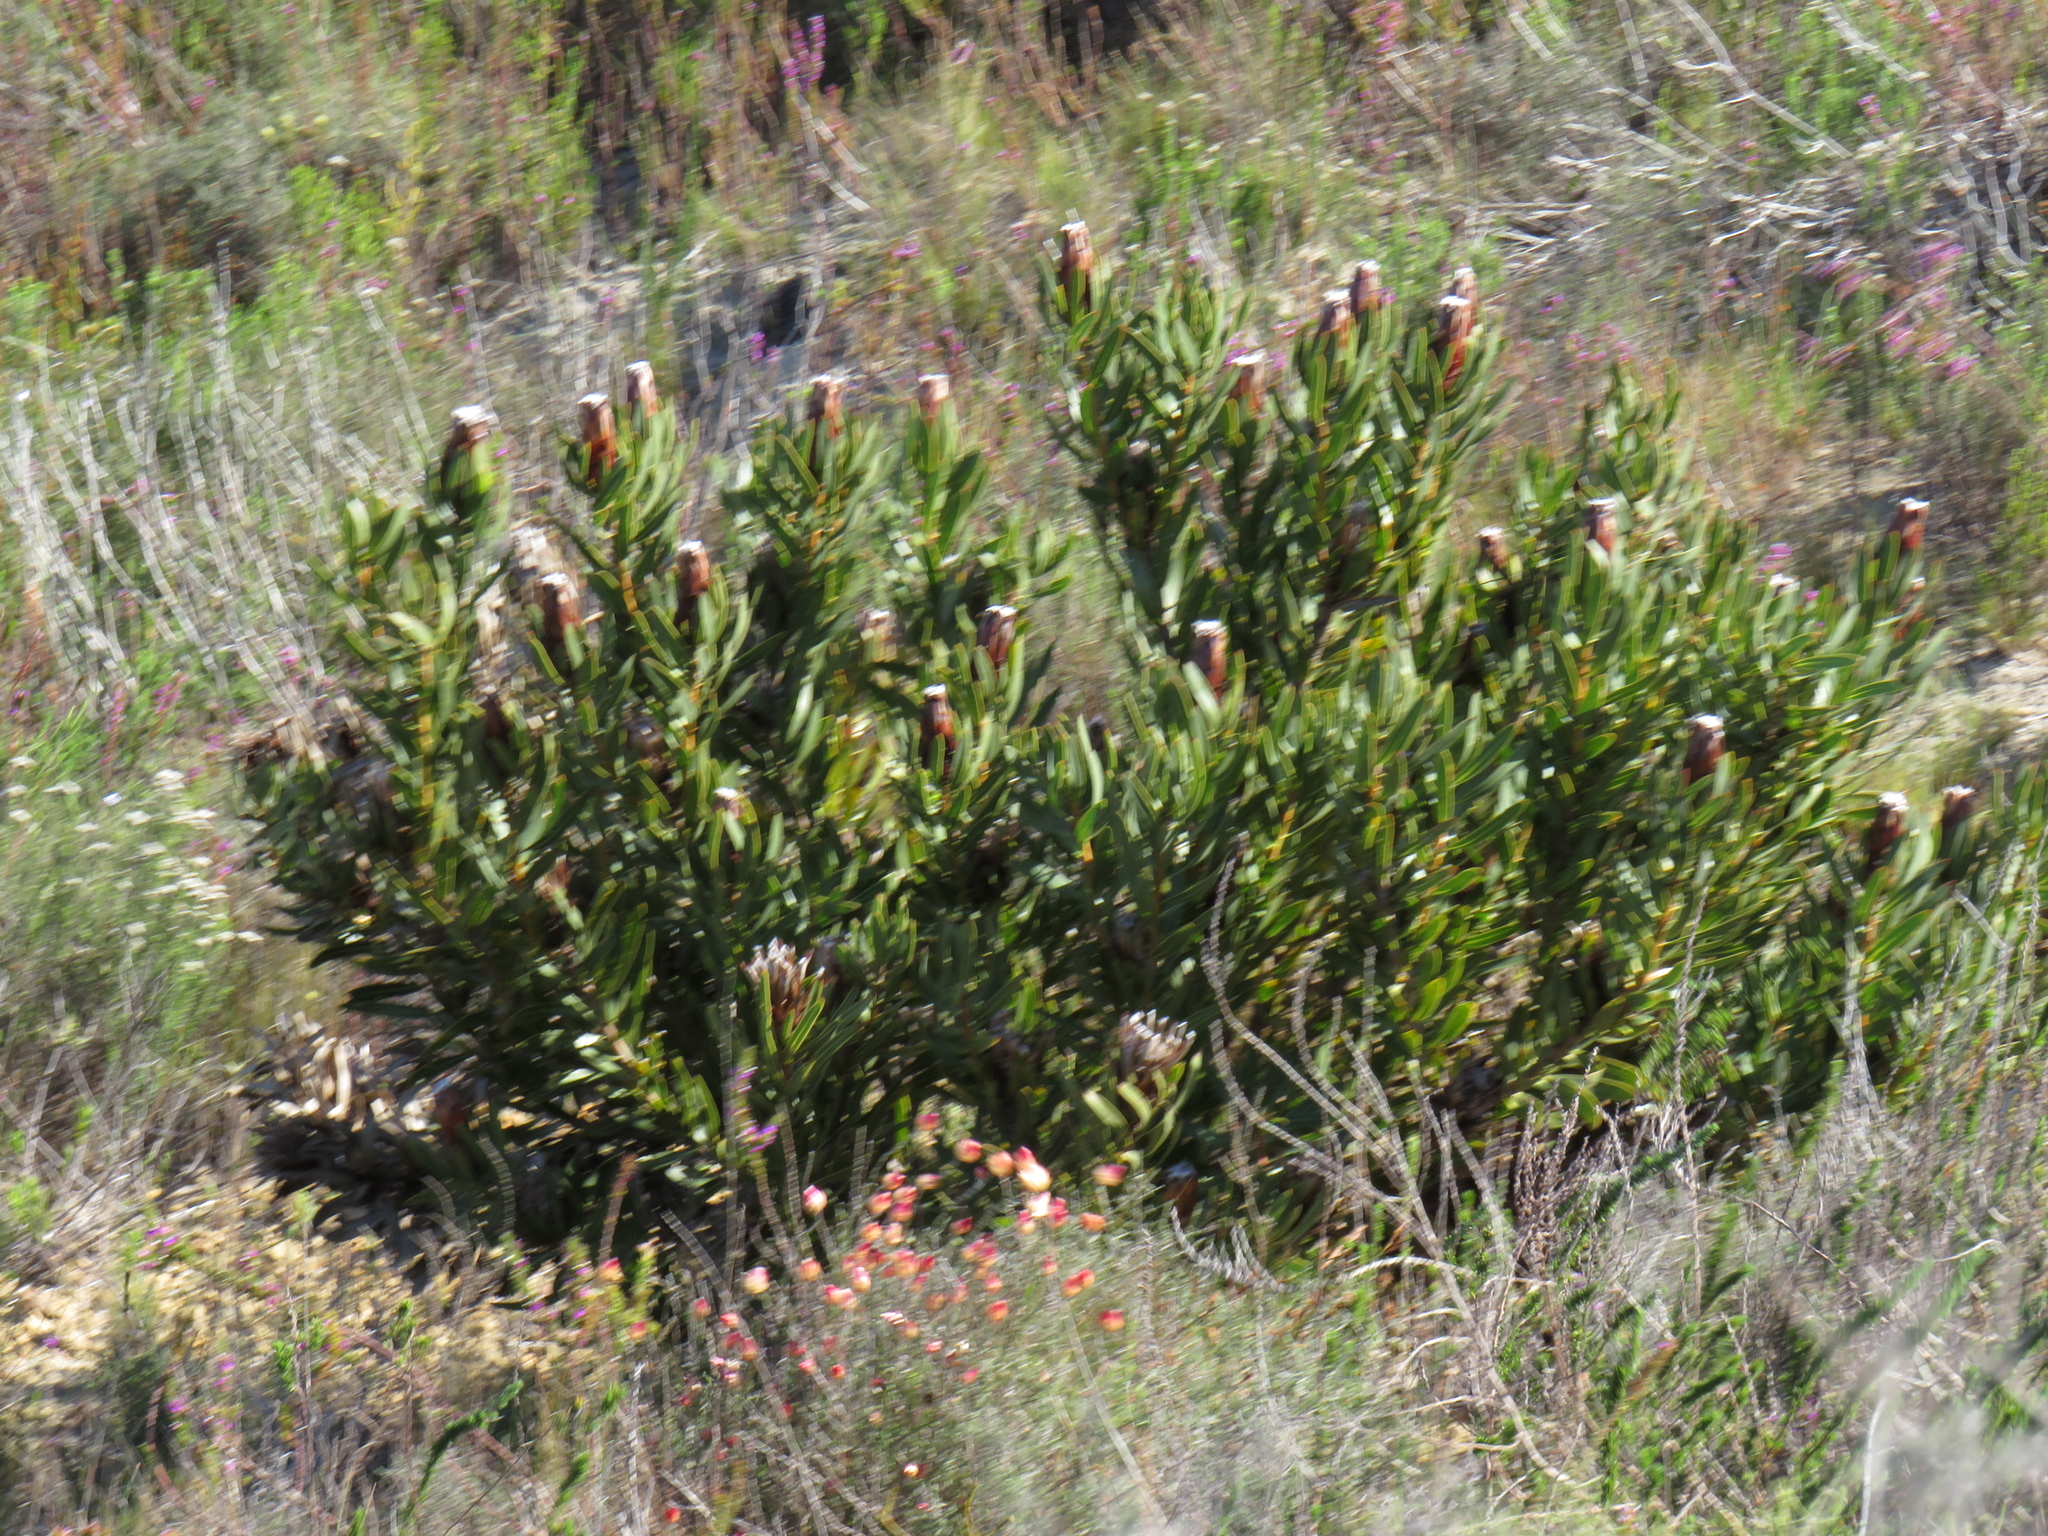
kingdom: Plantae
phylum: Tracheophyta
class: Magnoliopsida
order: Proteales
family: Proteaceae
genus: Protea
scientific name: Protea lepidocarpodendron
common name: Black-bearded protea
